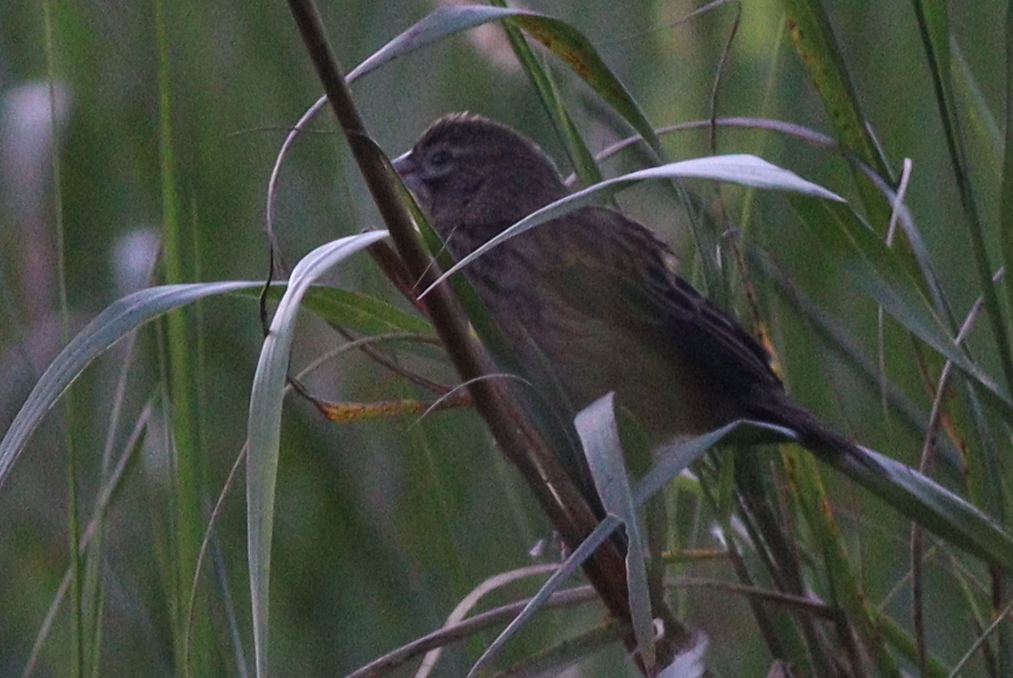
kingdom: Animalia
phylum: Chordata
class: Aves
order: Passeriformes
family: Ploceidae
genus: Euplectes
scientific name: Euplectes capensis
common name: Yellow bishop
